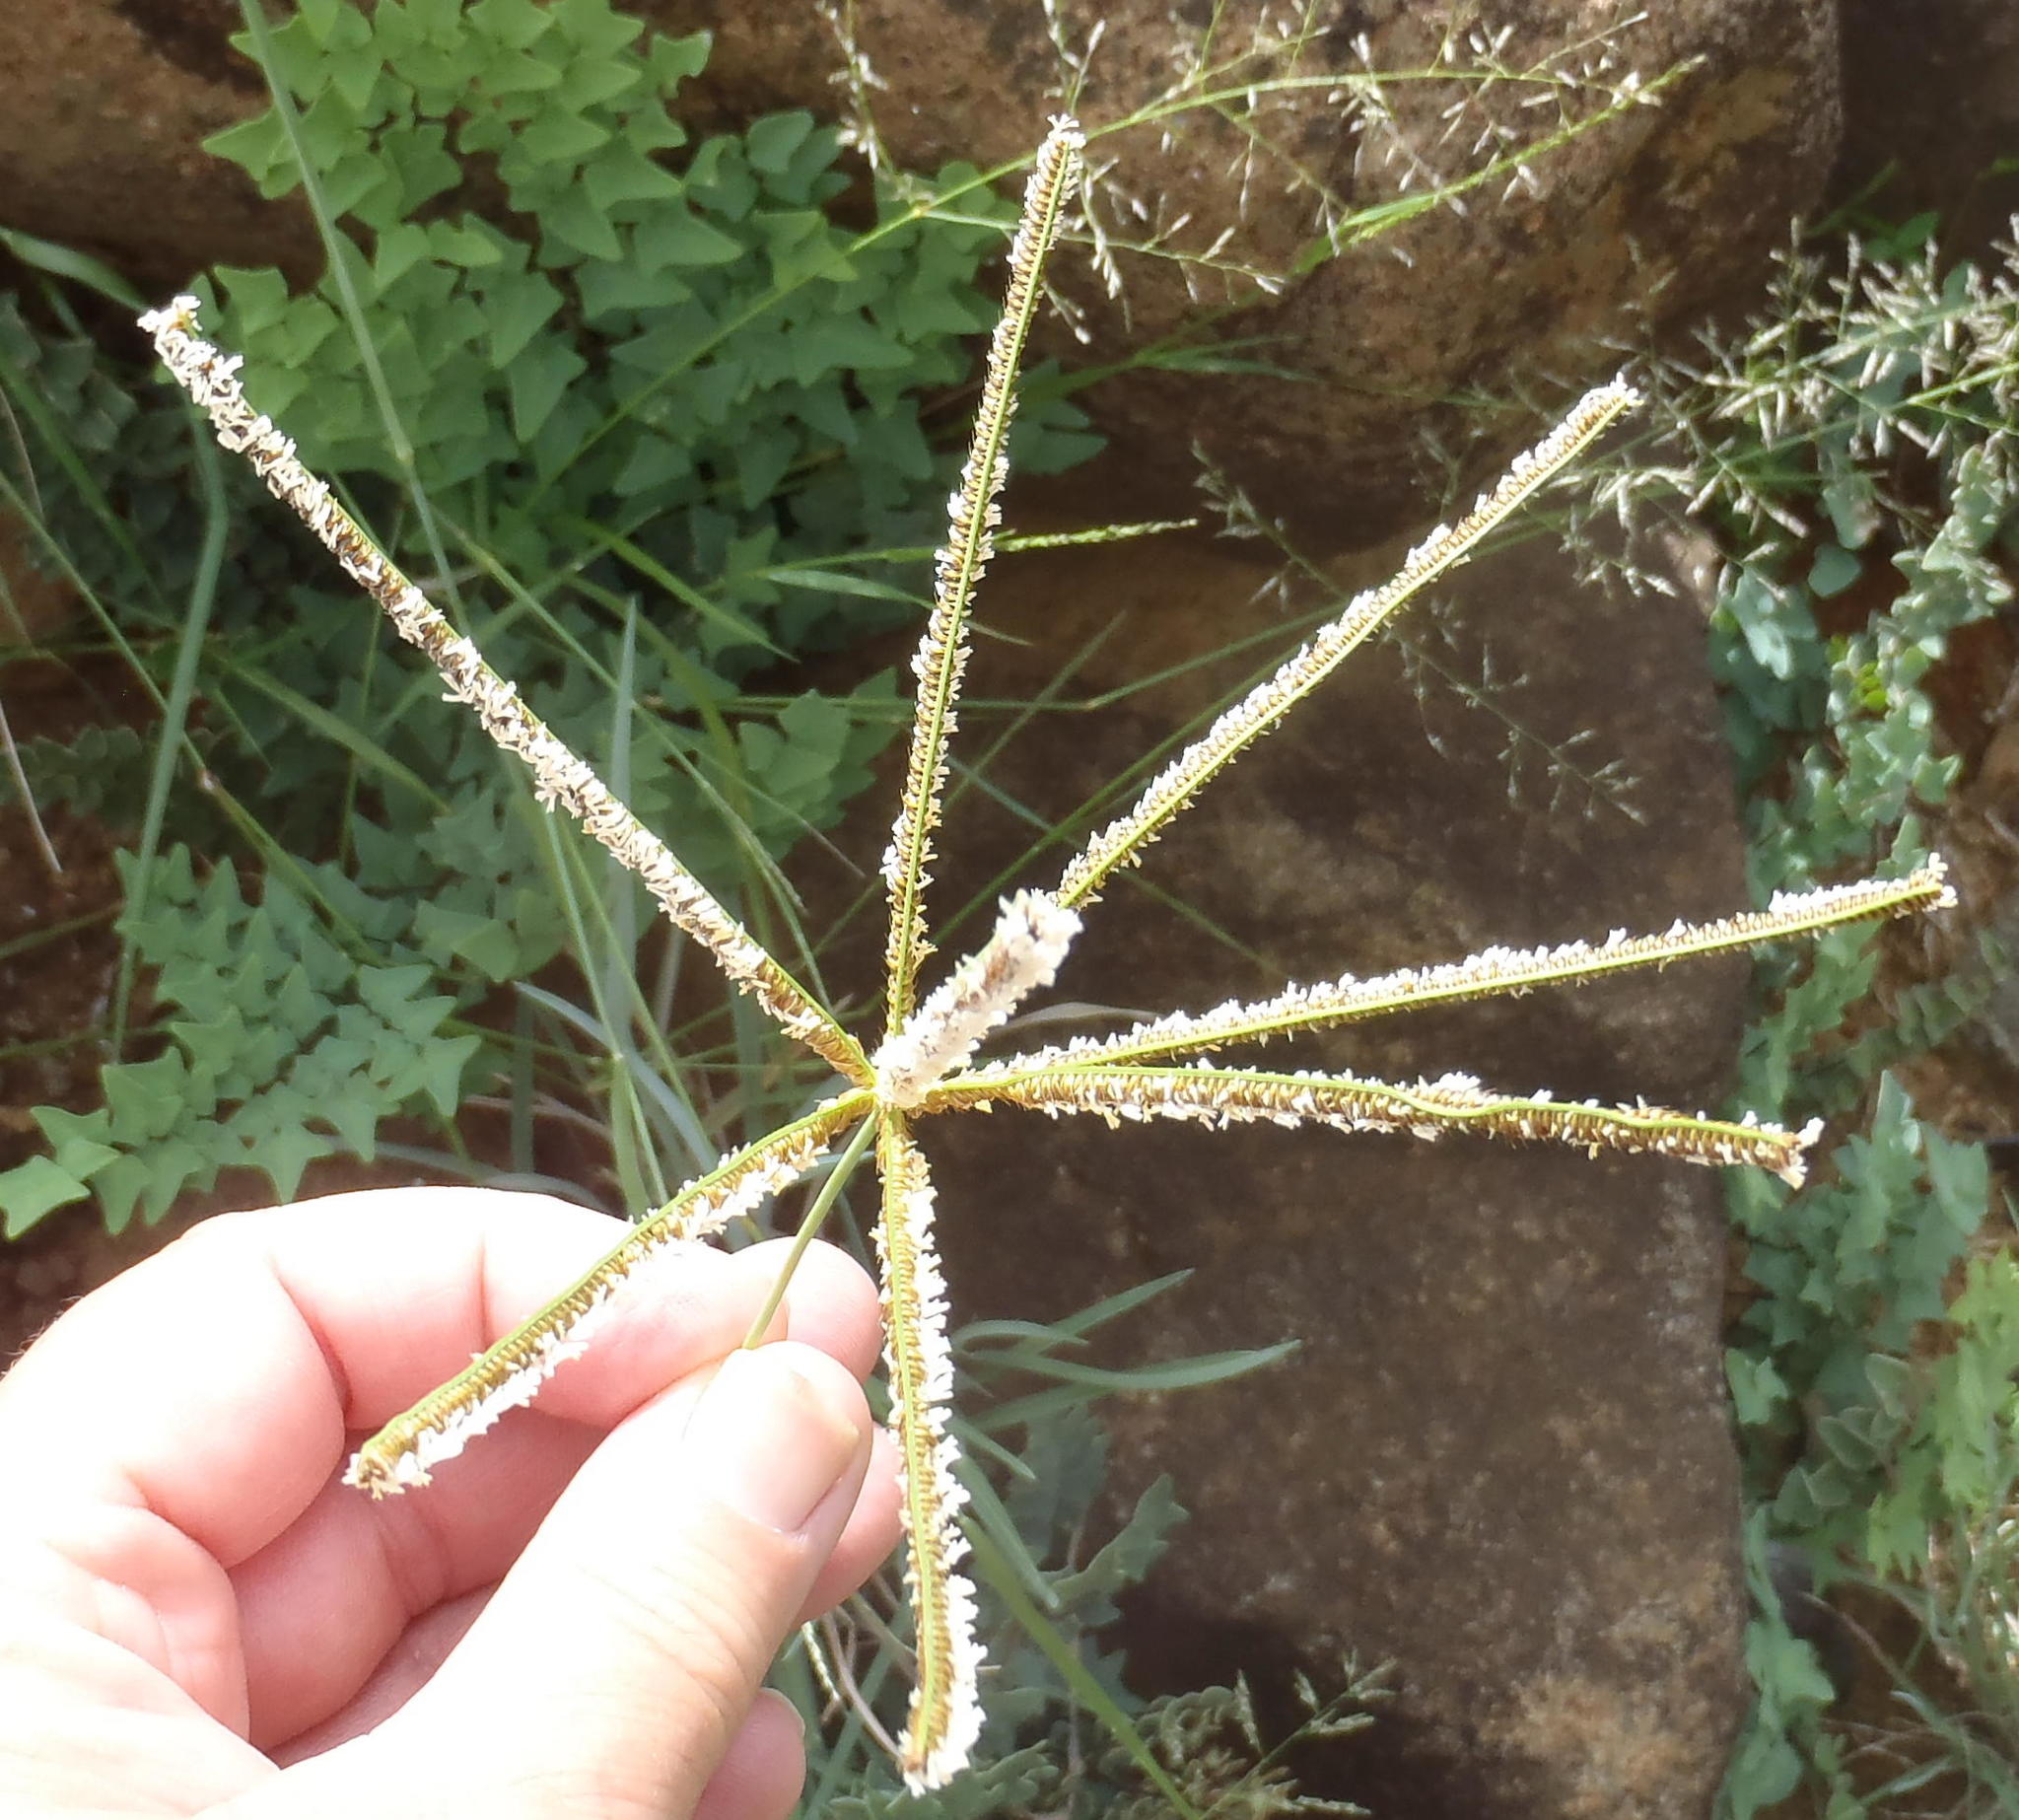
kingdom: Plantae
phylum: Tracheophyta
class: Liliopsida
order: Poales
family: Poaceae
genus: Eustachys
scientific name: Eustachys paspaloides
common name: Caribbean fingergrass
